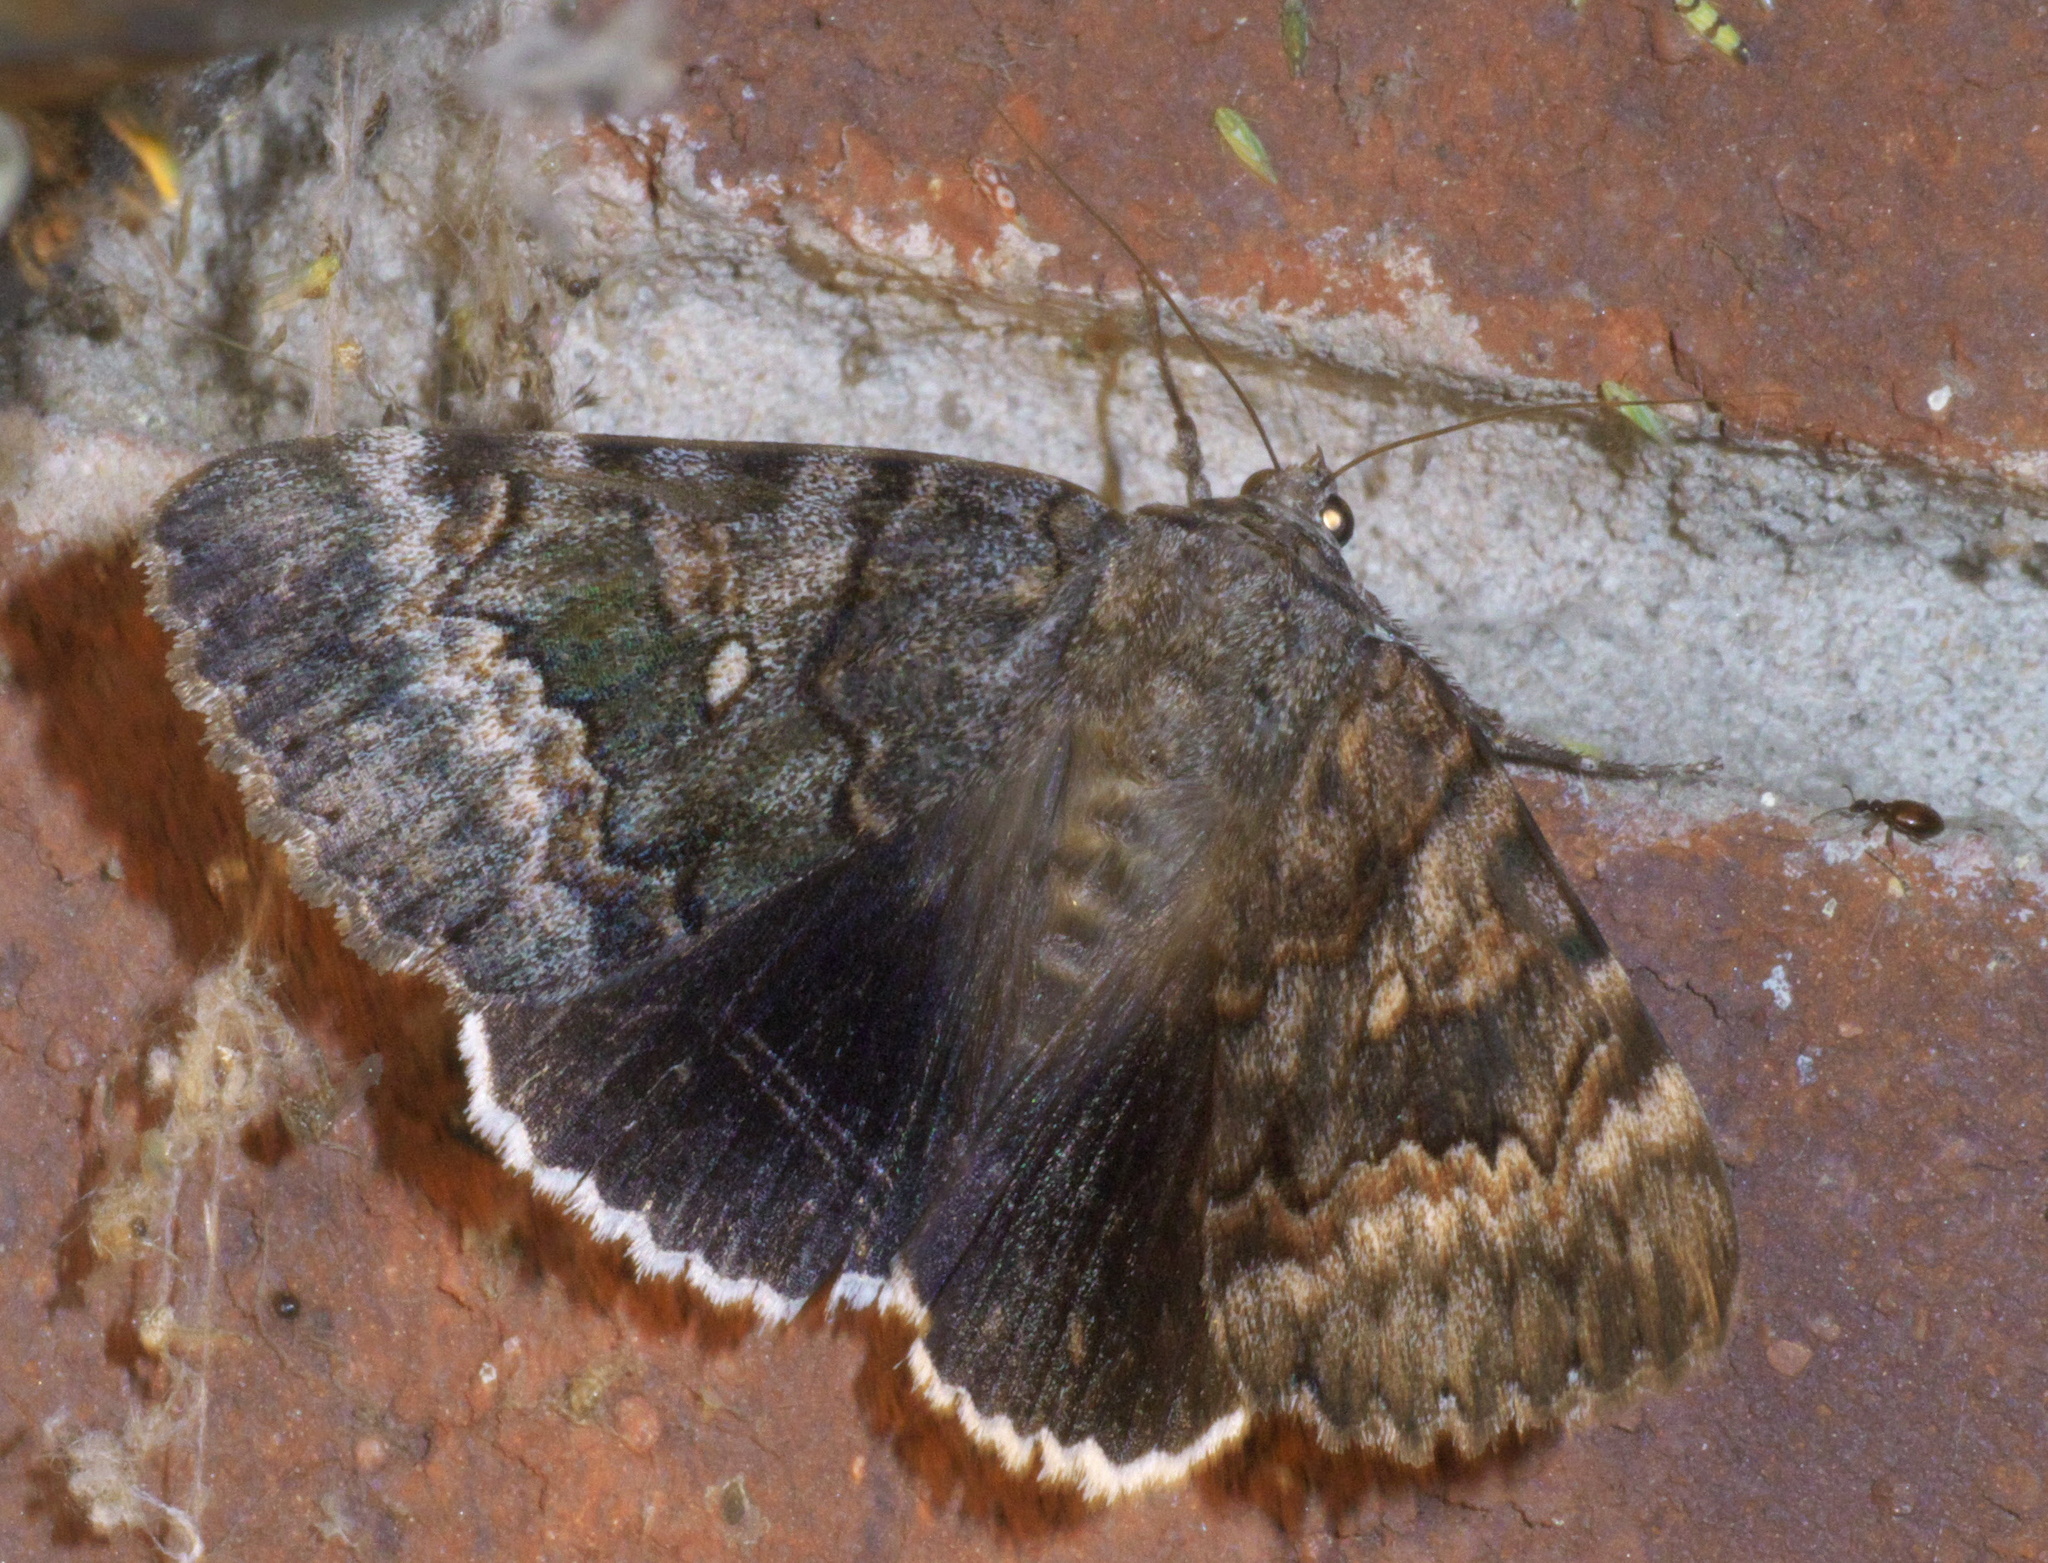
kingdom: Animalia
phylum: Arthropoda
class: Insecta
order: Lepidoptera
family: Erebidae
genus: Catocala
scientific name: Catocala epione
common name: Epione underwing
